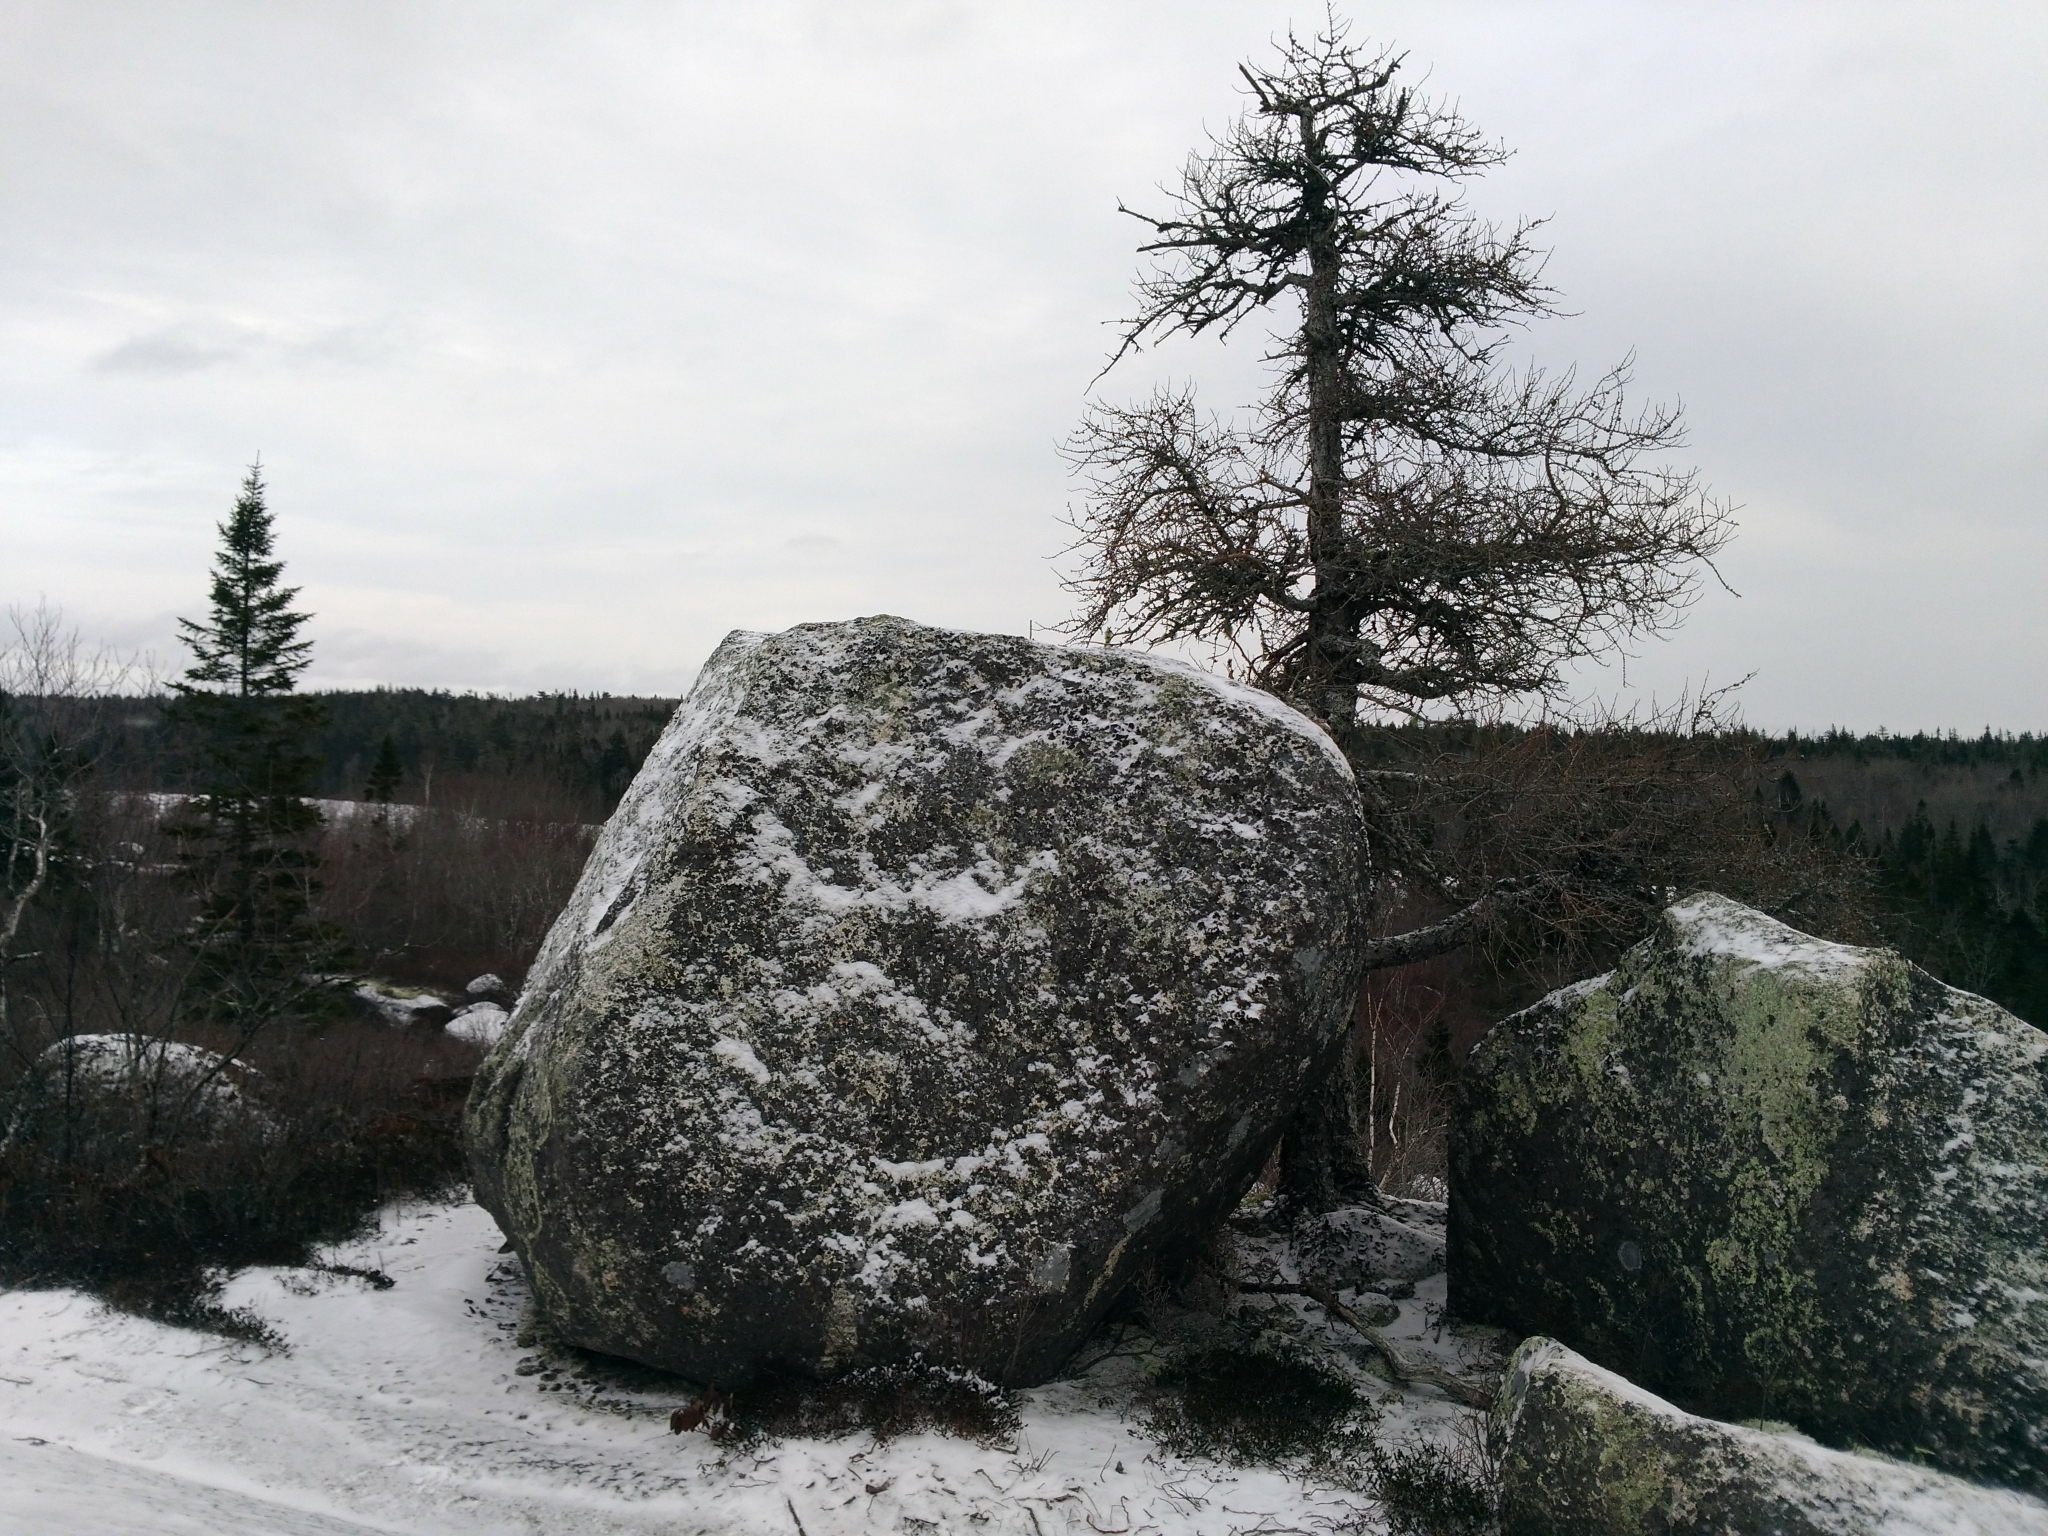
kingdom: Plantae
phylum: Tracheophyta
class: Pinopsida
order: Pinales
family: Pinaceae
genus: Larix
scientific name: Larix laricina
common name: American larch
